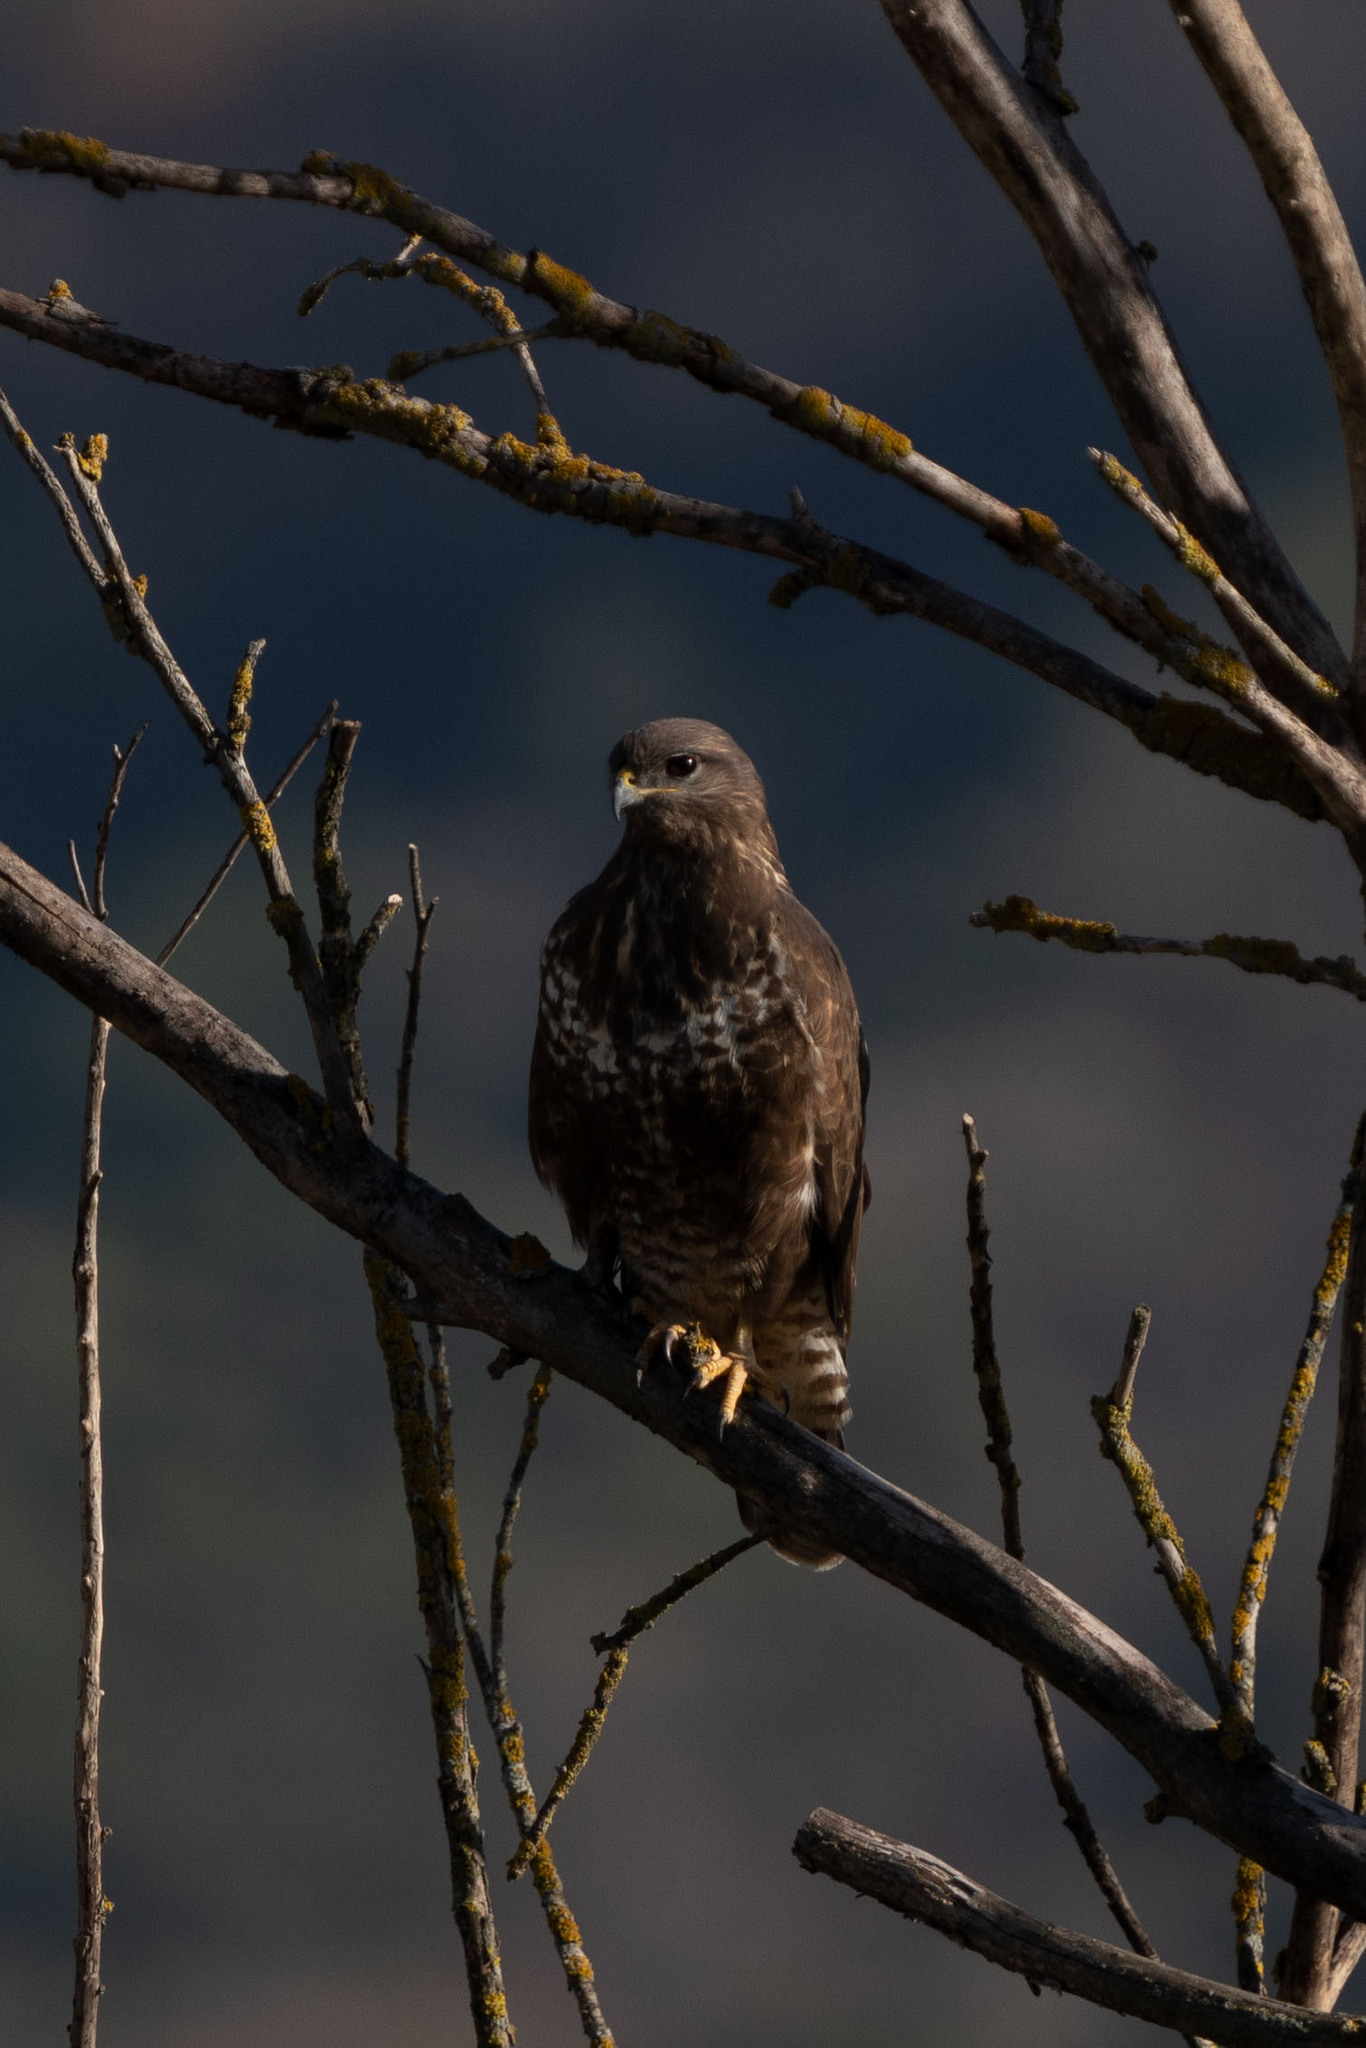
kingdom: Animalia
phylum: Chordata
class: Aves
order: Accipitriformes
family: Accipitridae
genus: Buteo
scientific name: Buteo buteo
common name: Common buzzard
